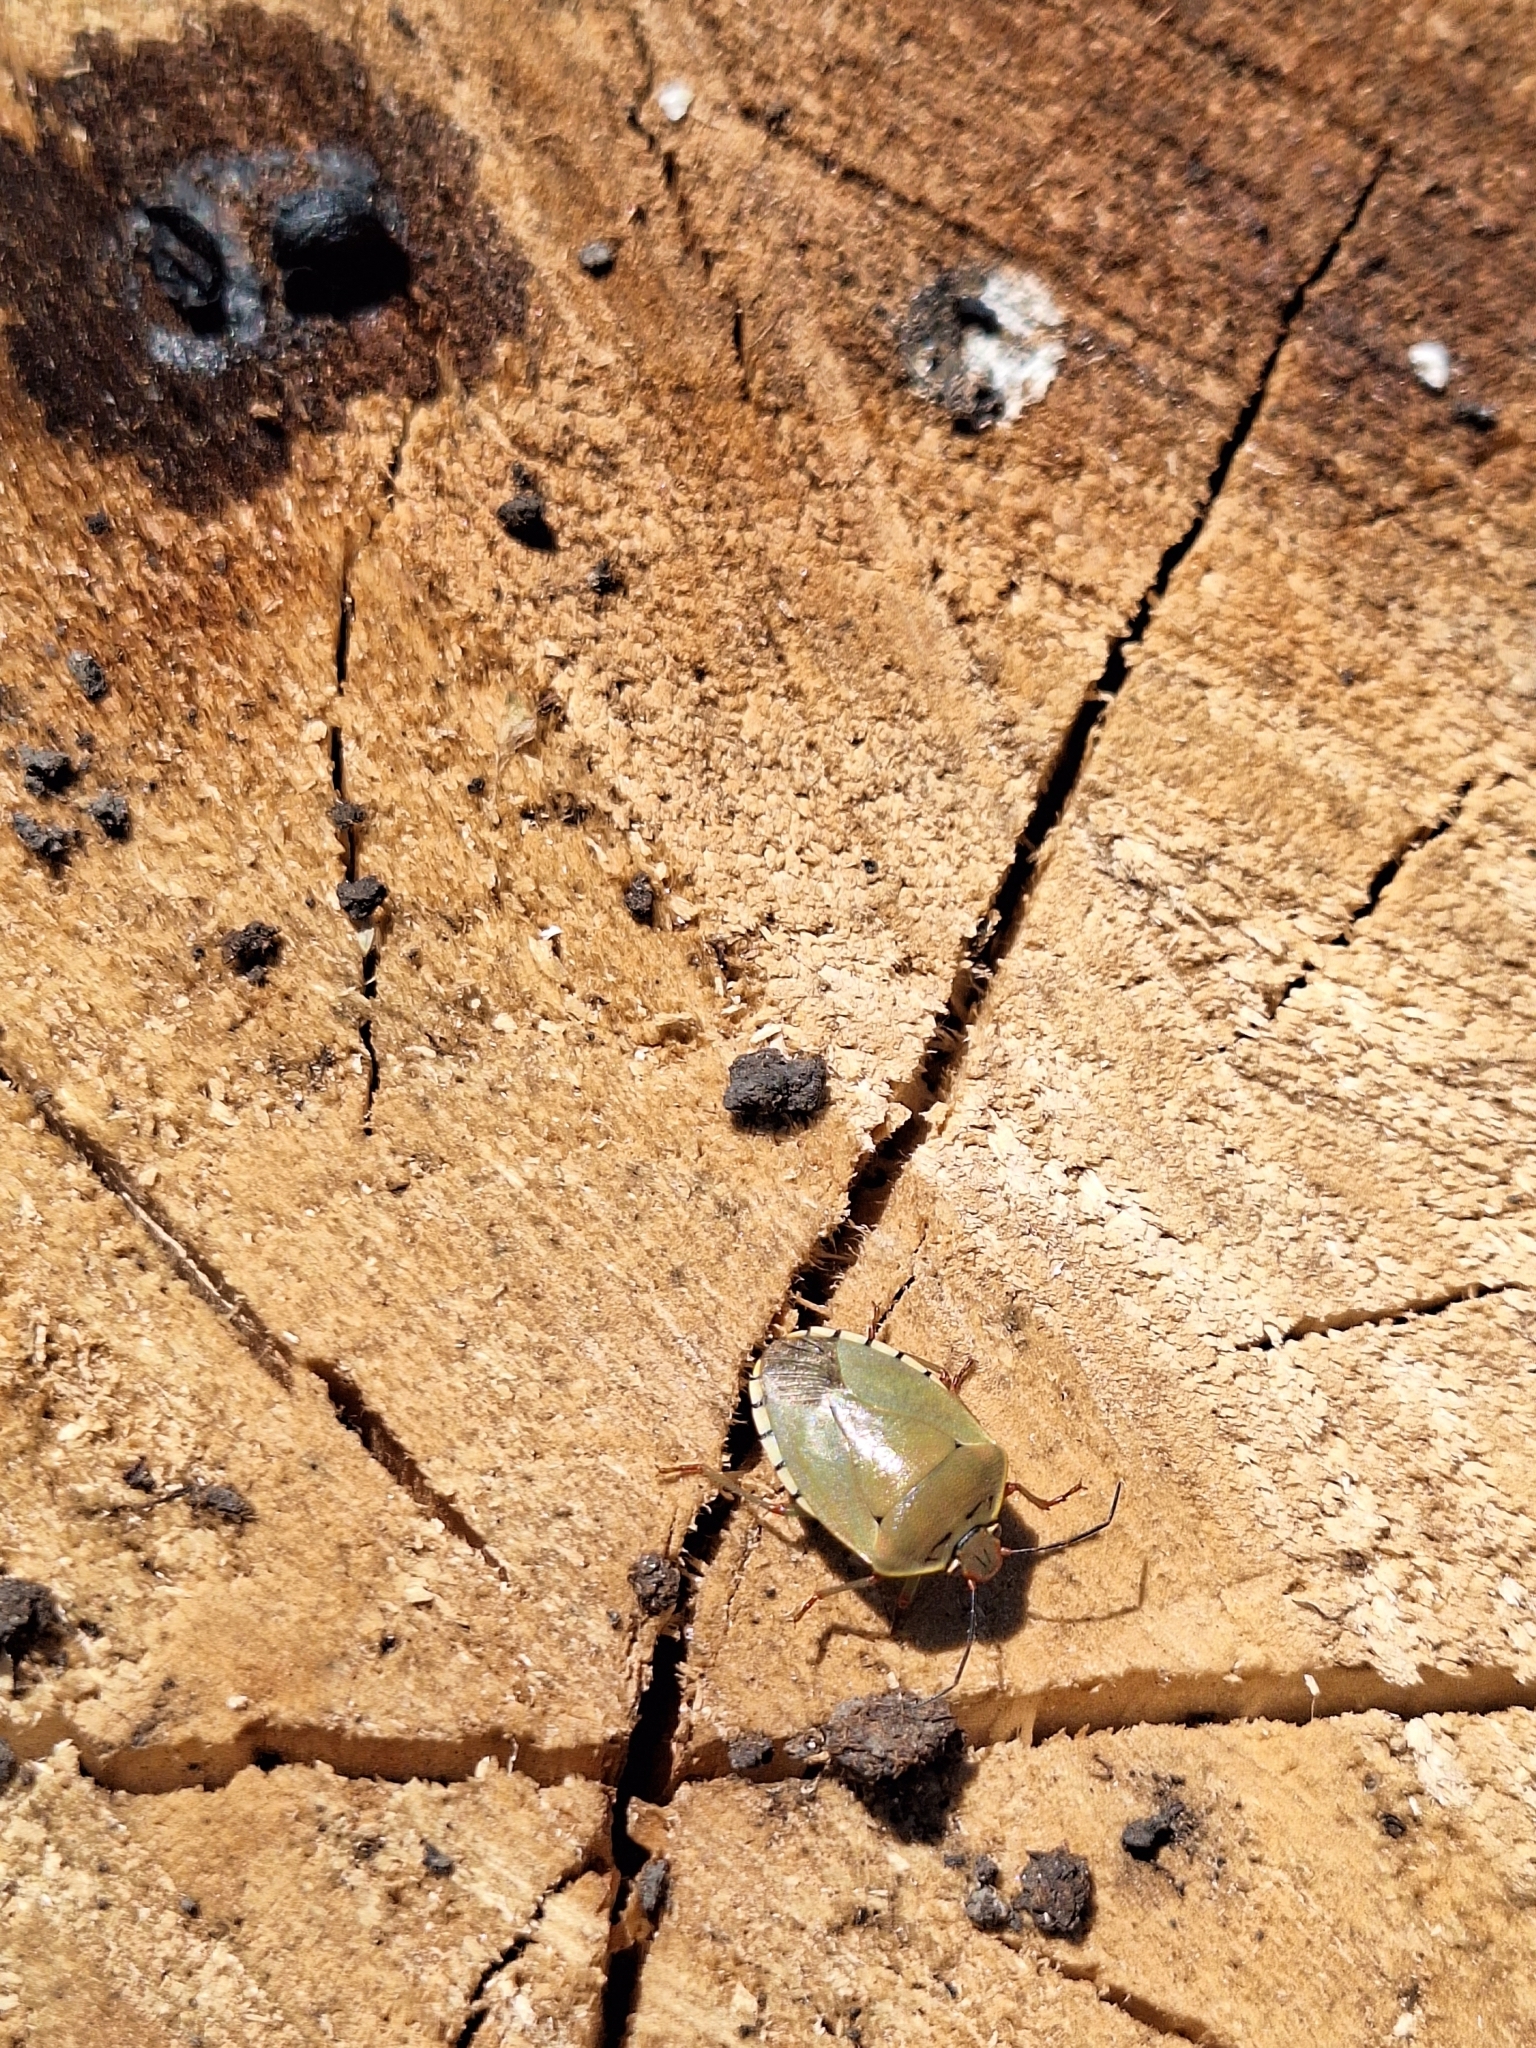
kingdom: Animalia
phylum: Arthropoda
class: Insecta
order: Hemiptera
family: Pentatomidae
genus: Chinavia
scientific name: Chinavia erythrocnemis
